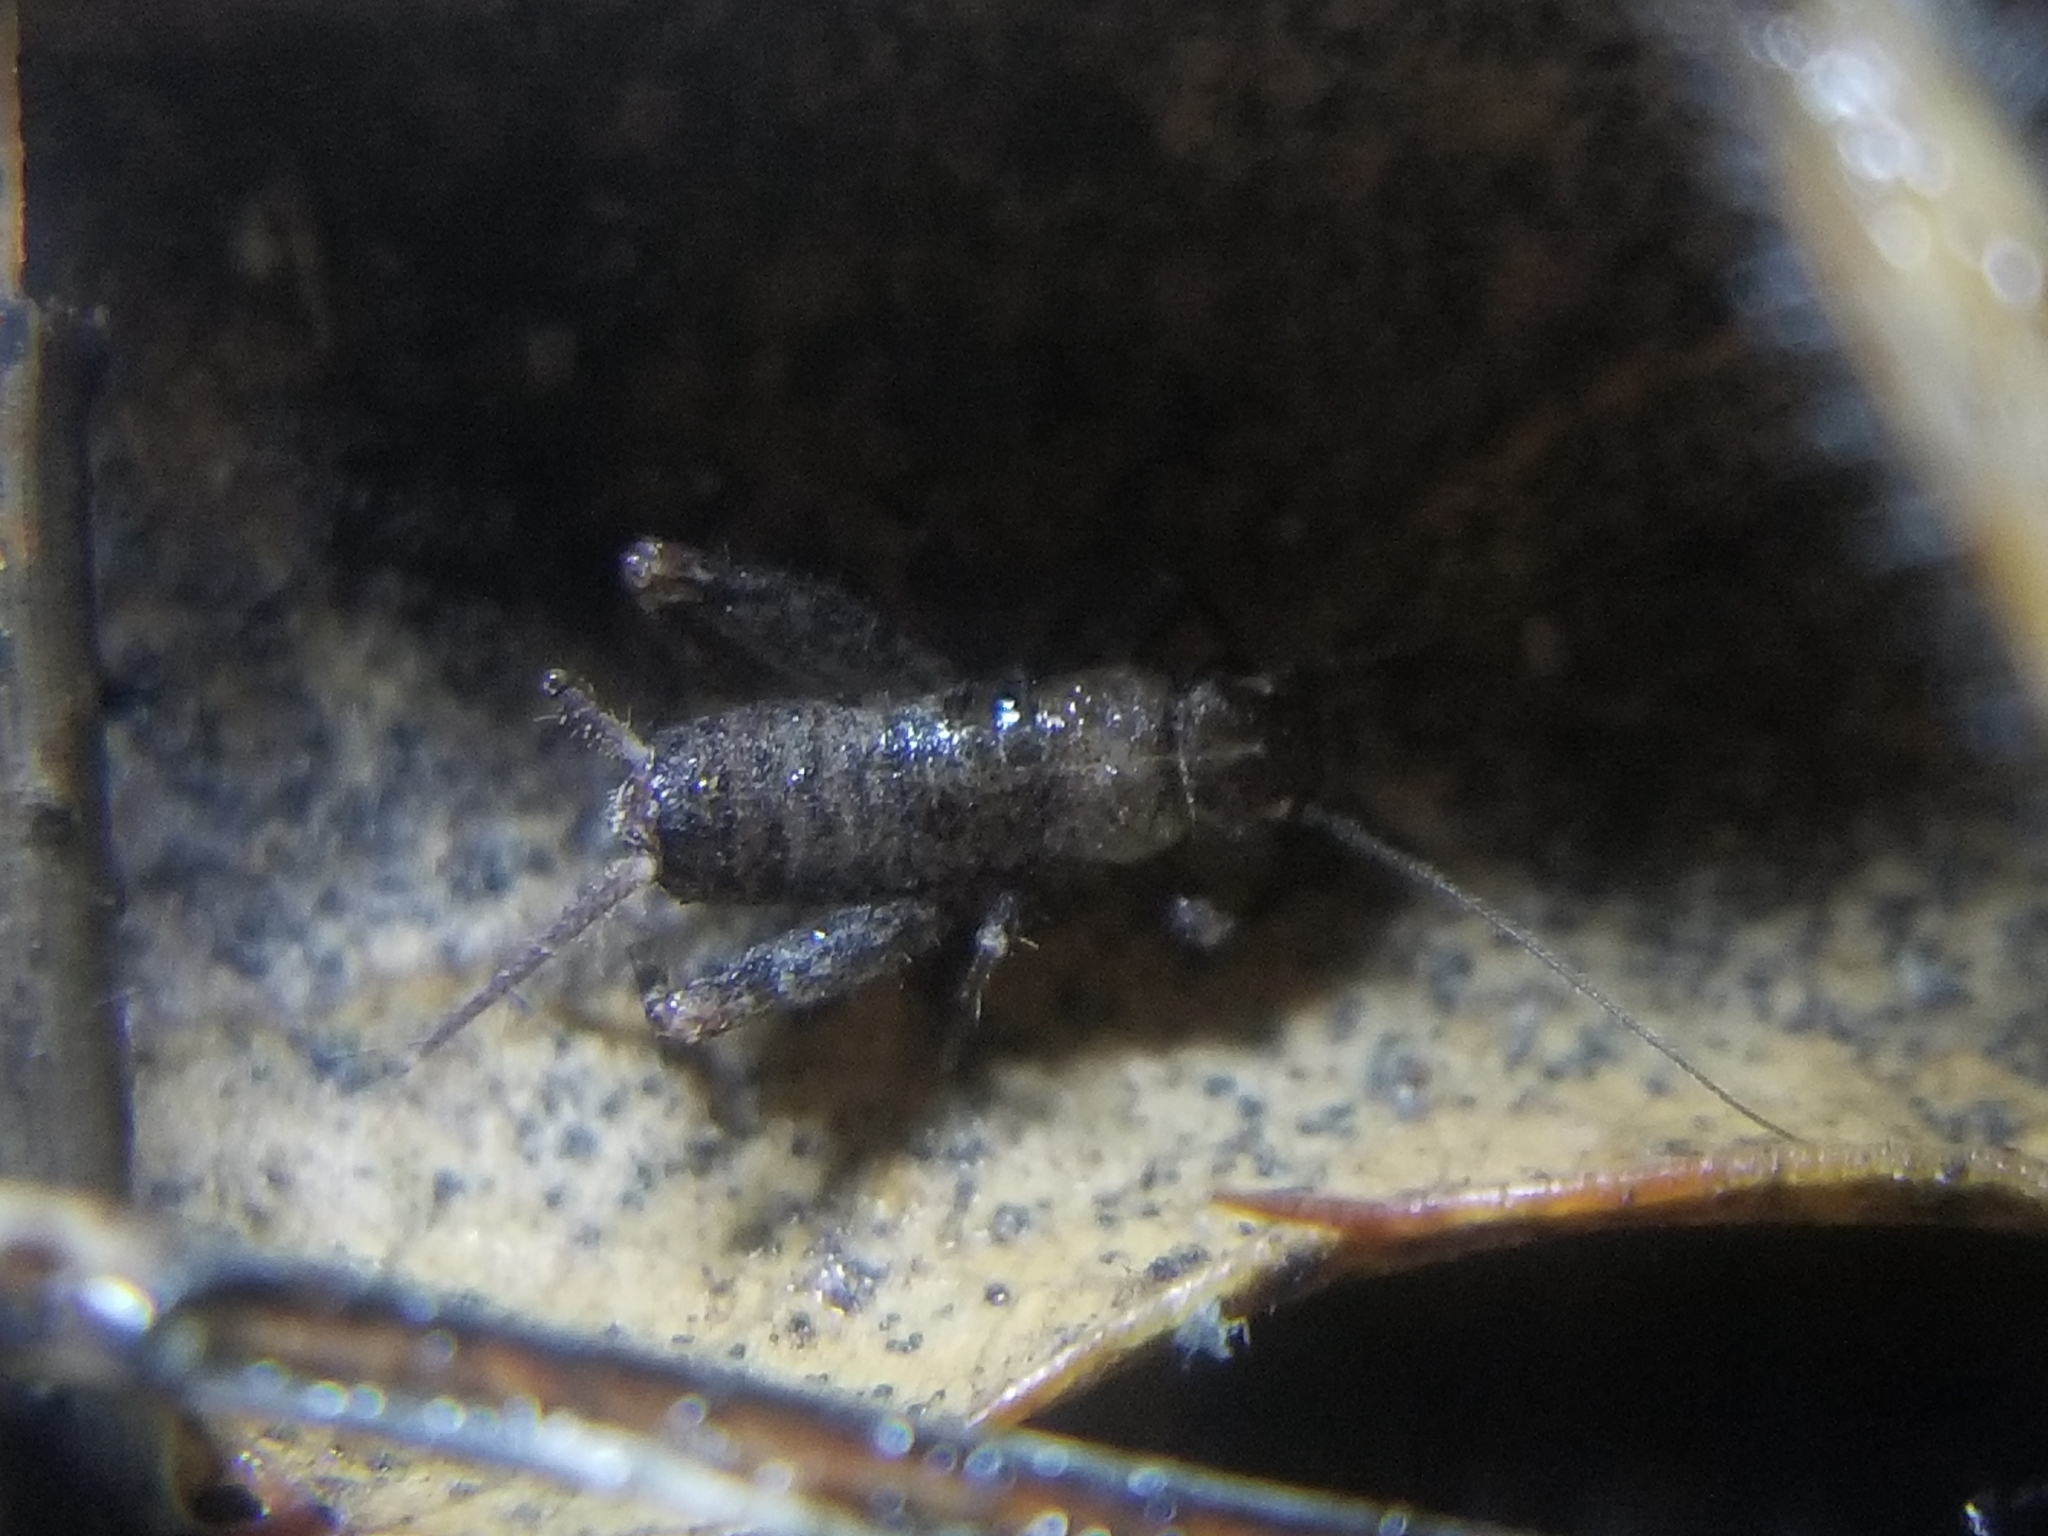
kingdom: Animalia
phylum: Arthropoda
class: Insecta
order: Orthoptera
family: Mogoplistidae
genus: Hoplosphyrum
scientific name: Hoplosphyrum boreale
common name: Long-winged scaly cricket
